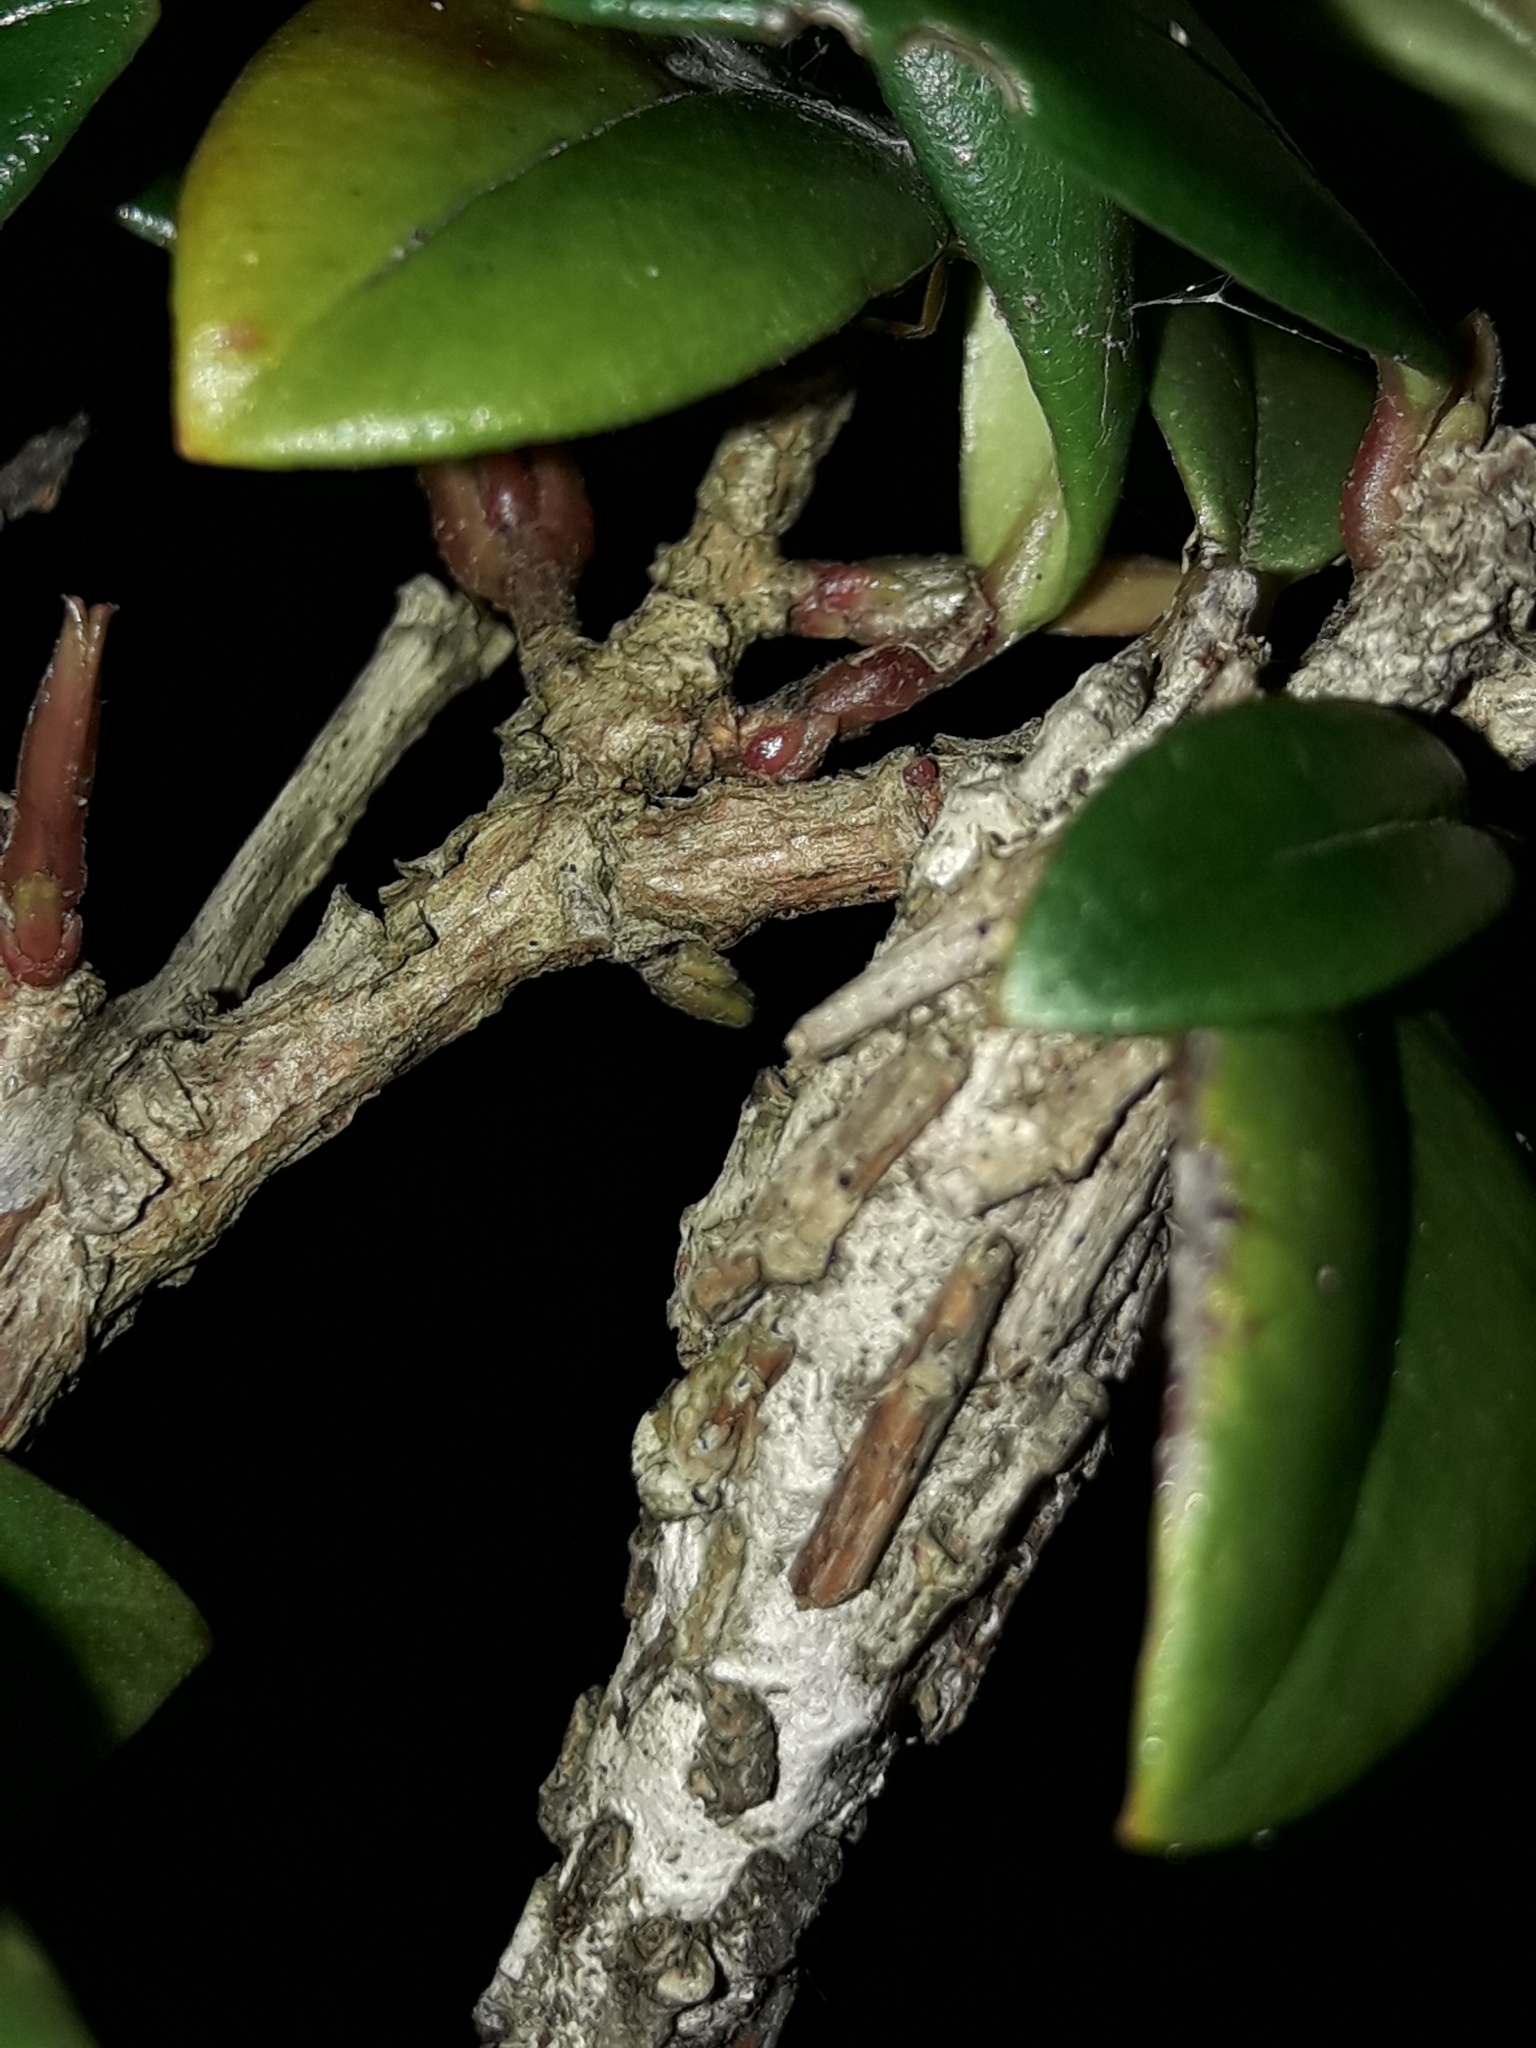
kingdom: Animalia
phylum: Arthropoda
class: Insecta
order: Lepidoptera
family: Psychidae
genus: Liothula
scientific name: Liothula omnivora
